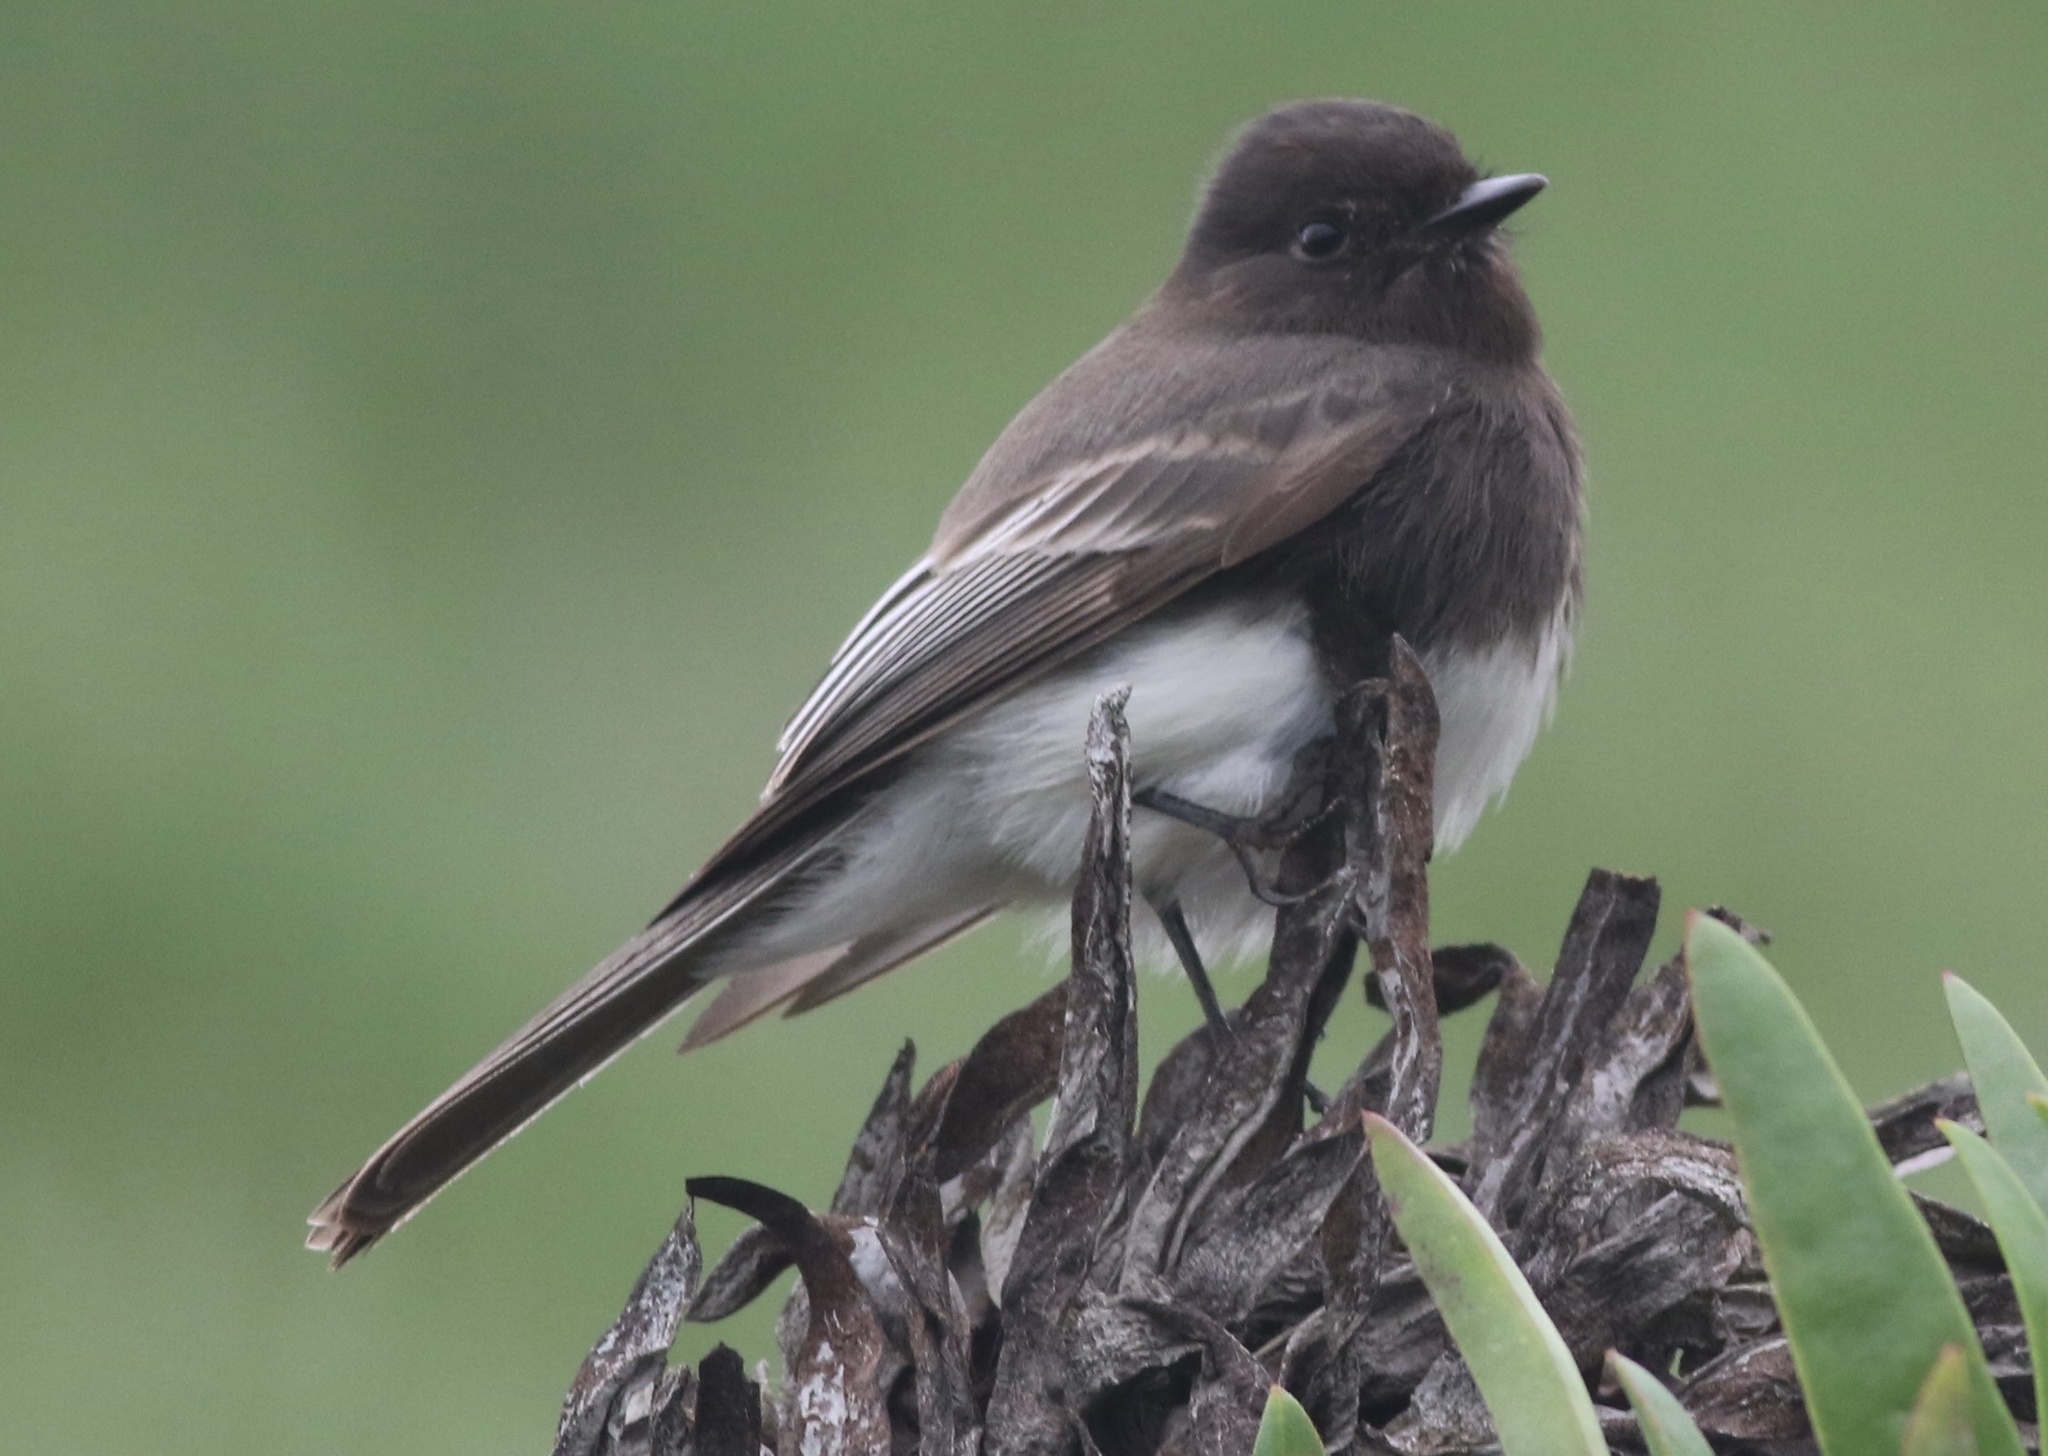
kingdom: Animalia
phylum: Chordata
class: Aves
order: Passeriformes
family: Tyrannidae
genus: Sayornis
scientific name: Sayornis nigricans
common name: Black phoebe
